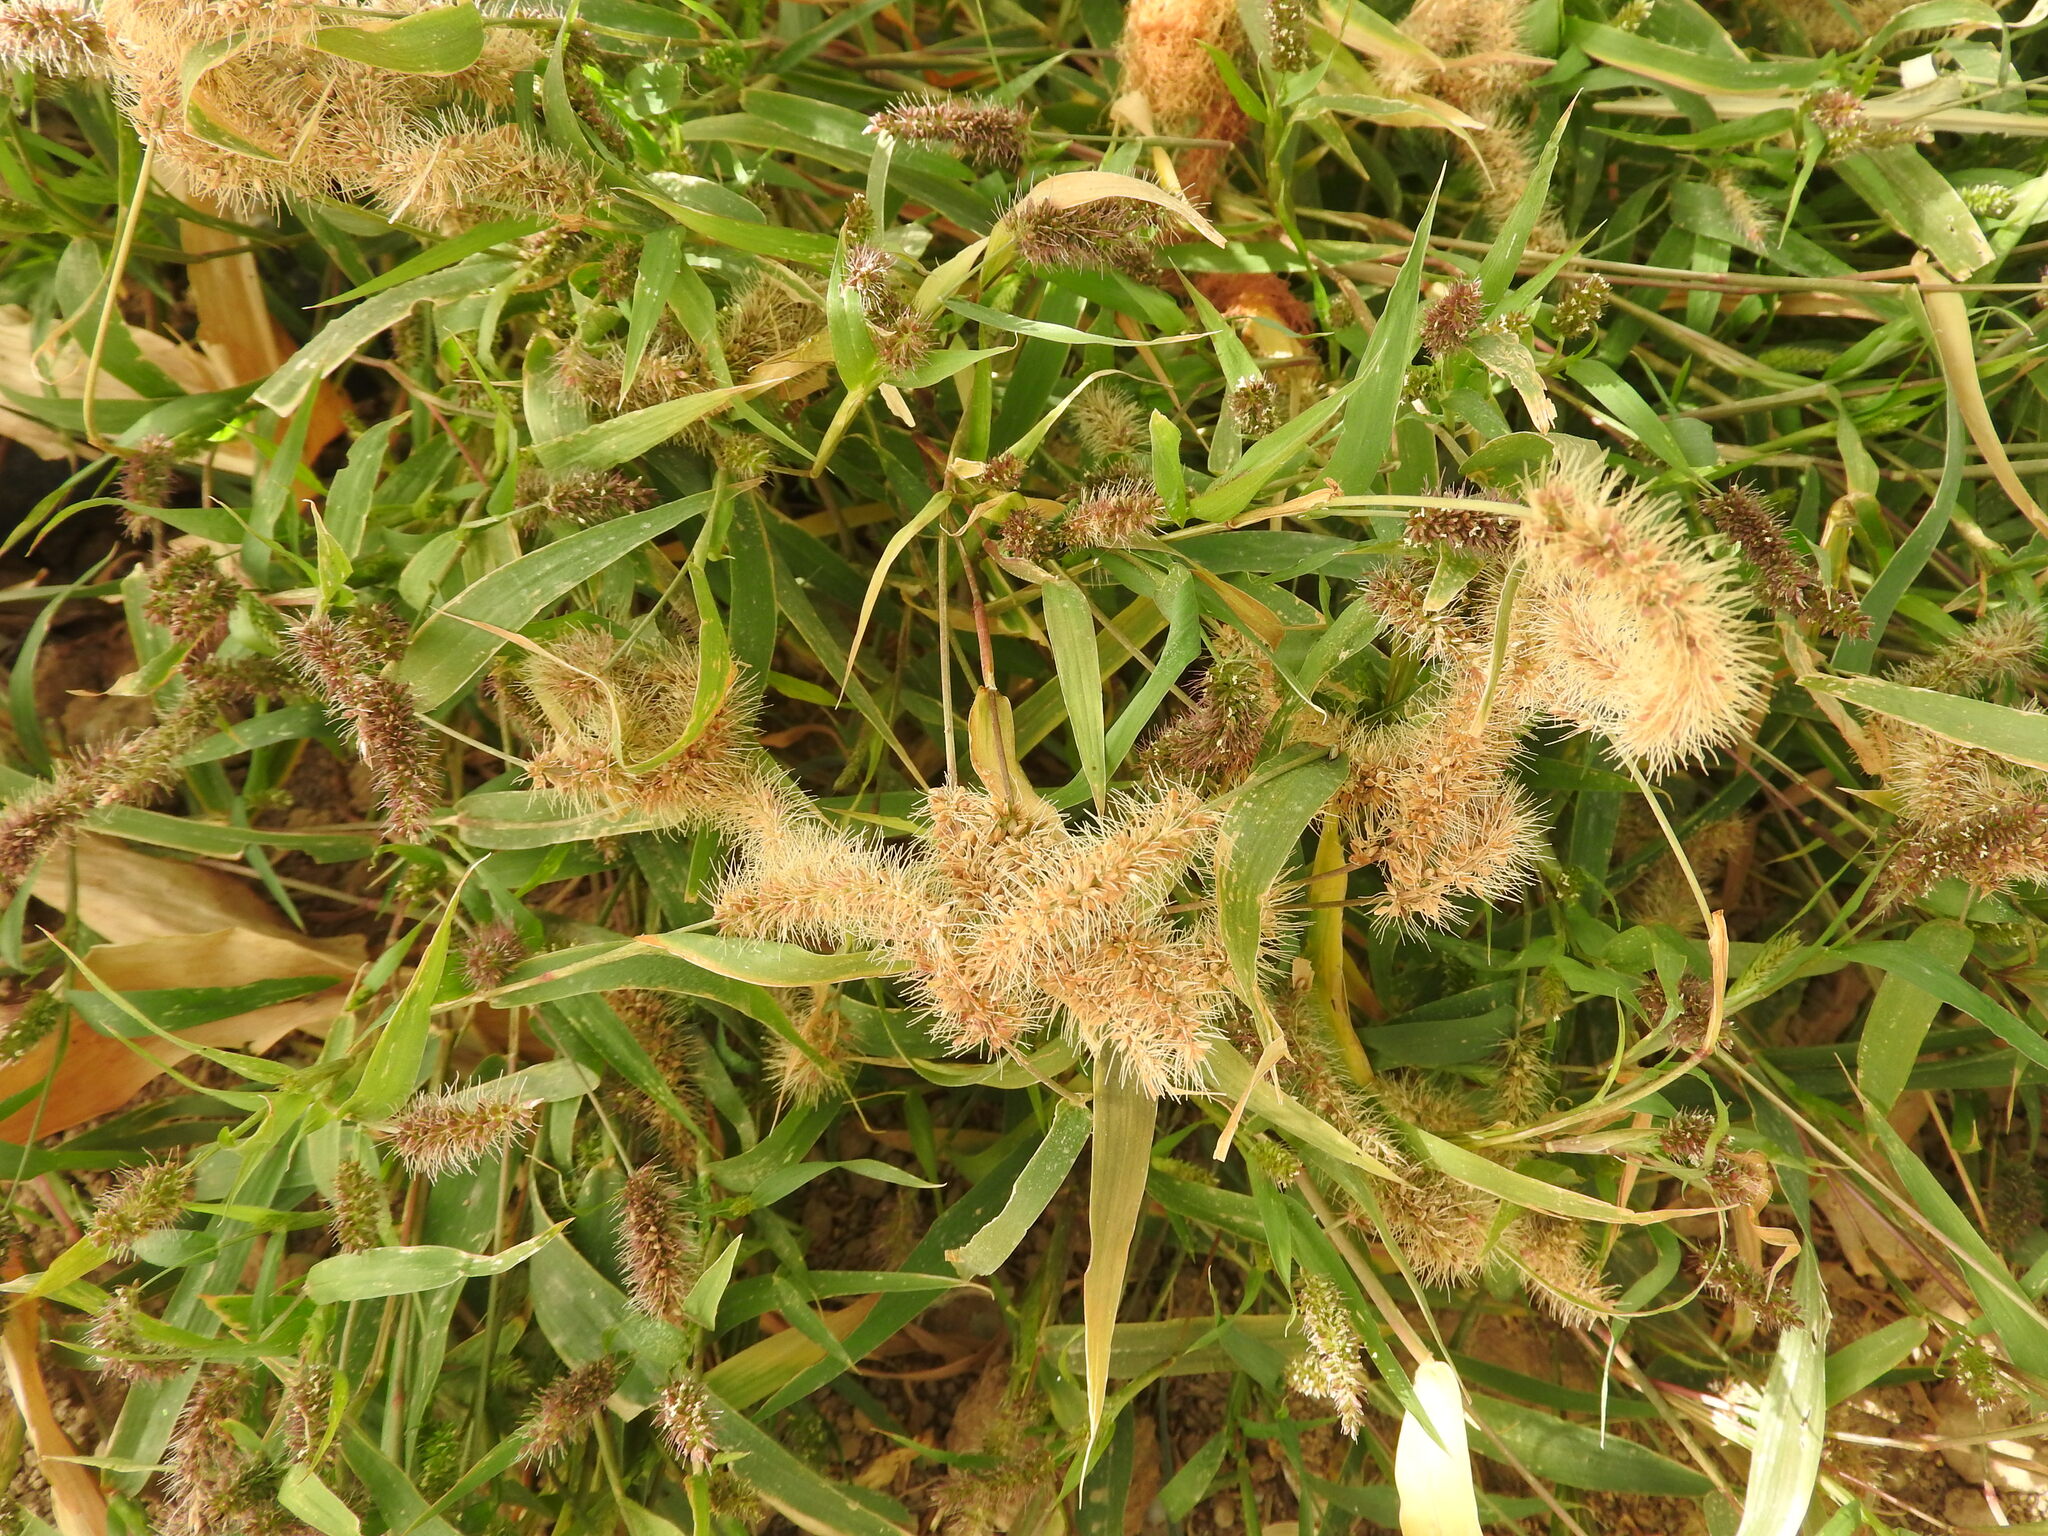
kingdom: Plantae
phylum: Tracheophyta
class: Liliopsida
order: Poales
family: Poaceae
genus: Setaria
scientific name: Setaria adhaerens
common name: Adherent bristle-grass
